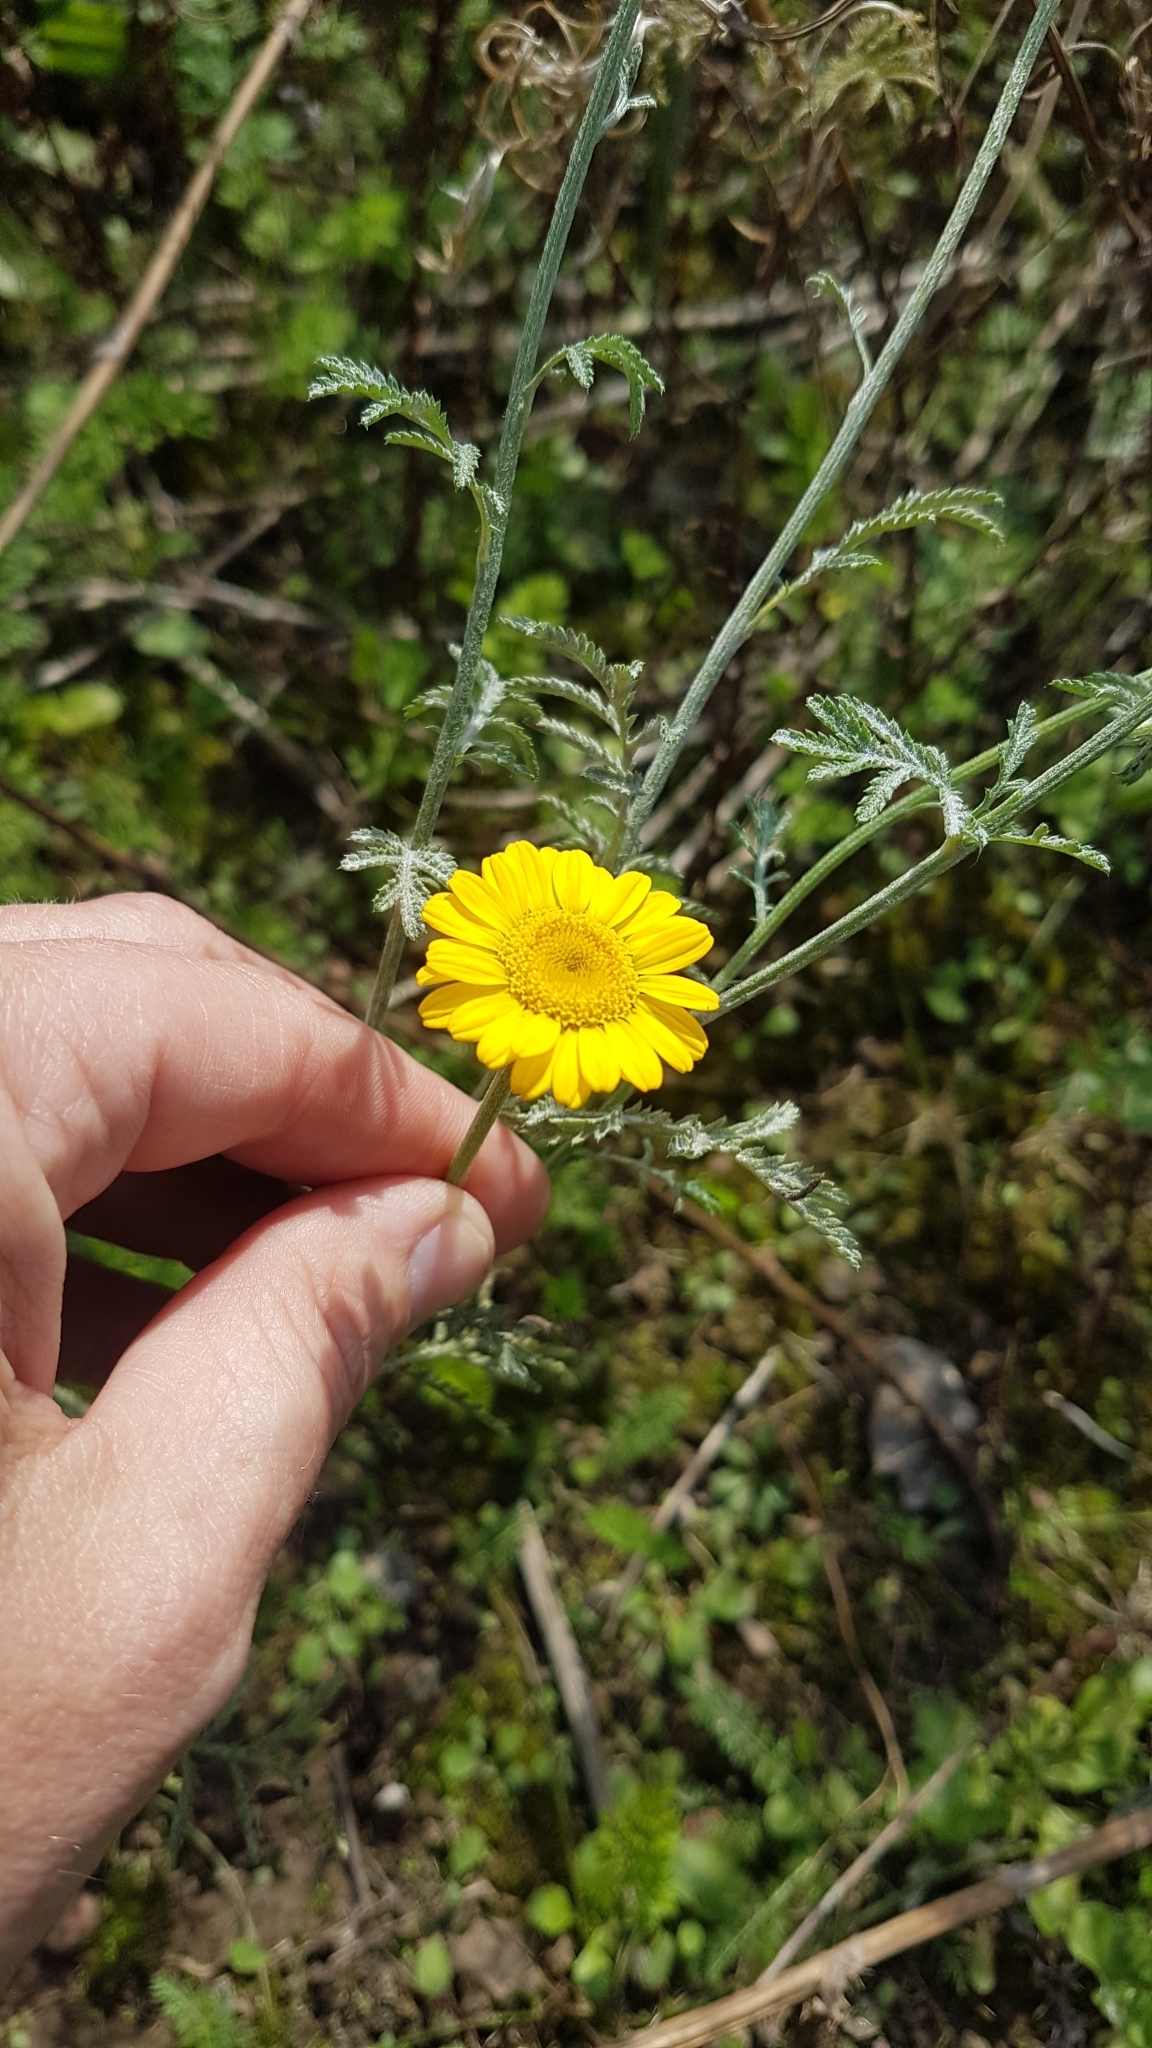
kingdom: Plantae
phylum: Tracheophyta
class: Magnoliopsida
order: Asterales
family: Asteraceae
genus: Cota
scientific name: Cota tinctoria
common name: Golden chamomile
